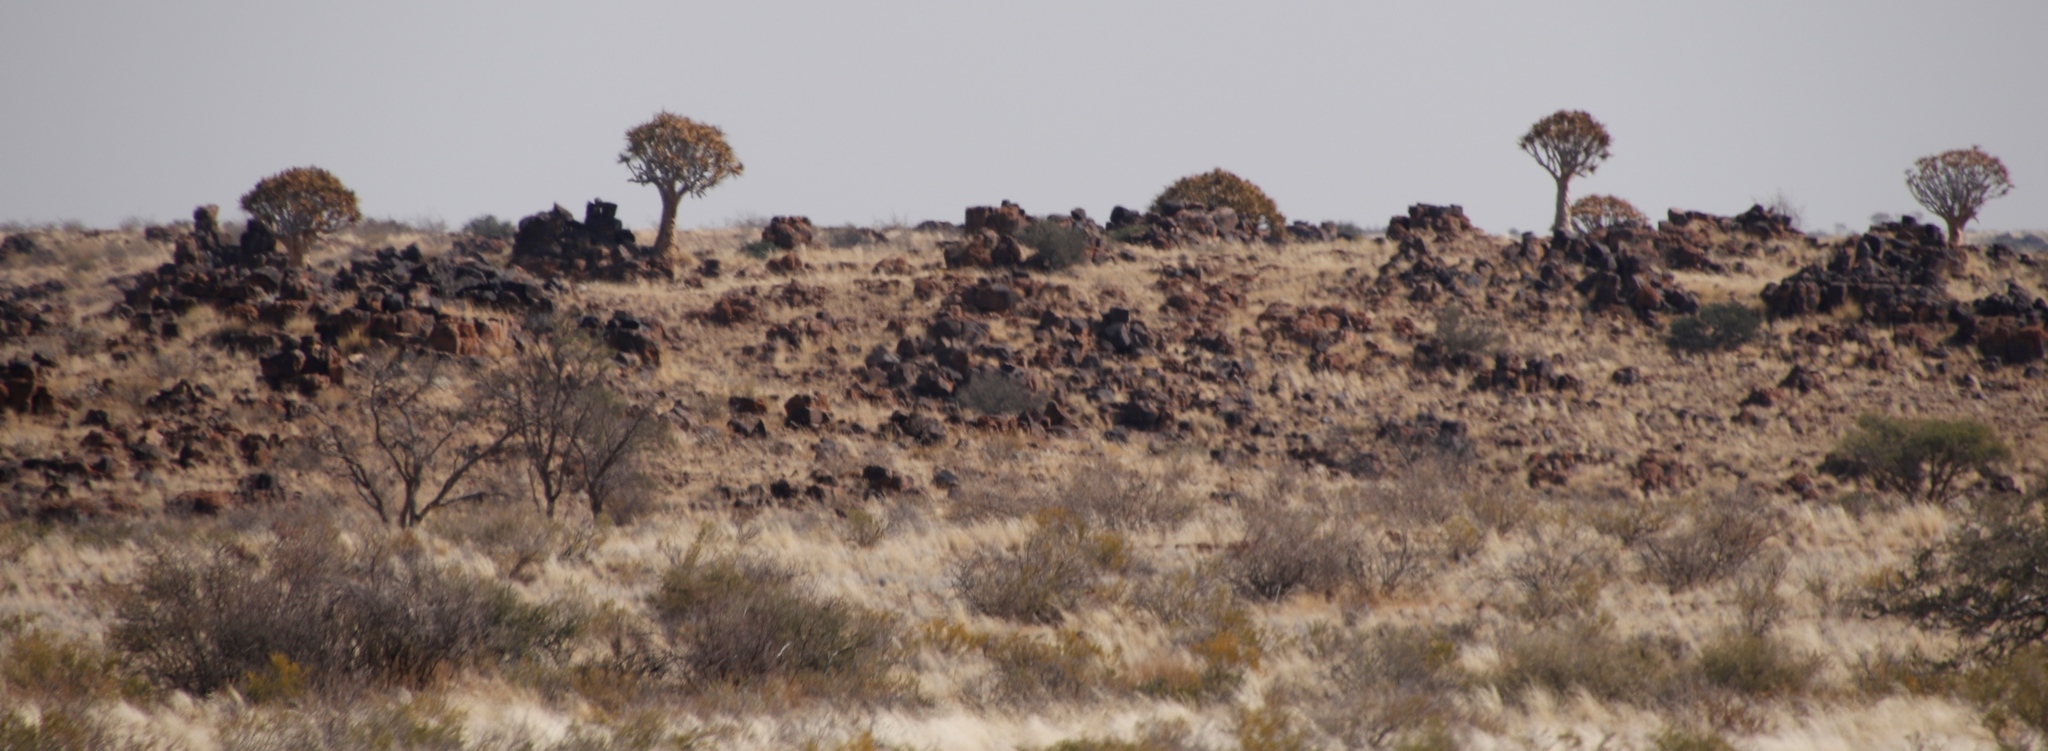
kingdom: Plantae
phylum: Tracheophyta
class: Liliopsida
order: Asparagales
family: Asphodelaceae
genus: Aloidendron
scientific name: Aloidendron dichotomum
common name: Quiver tree
